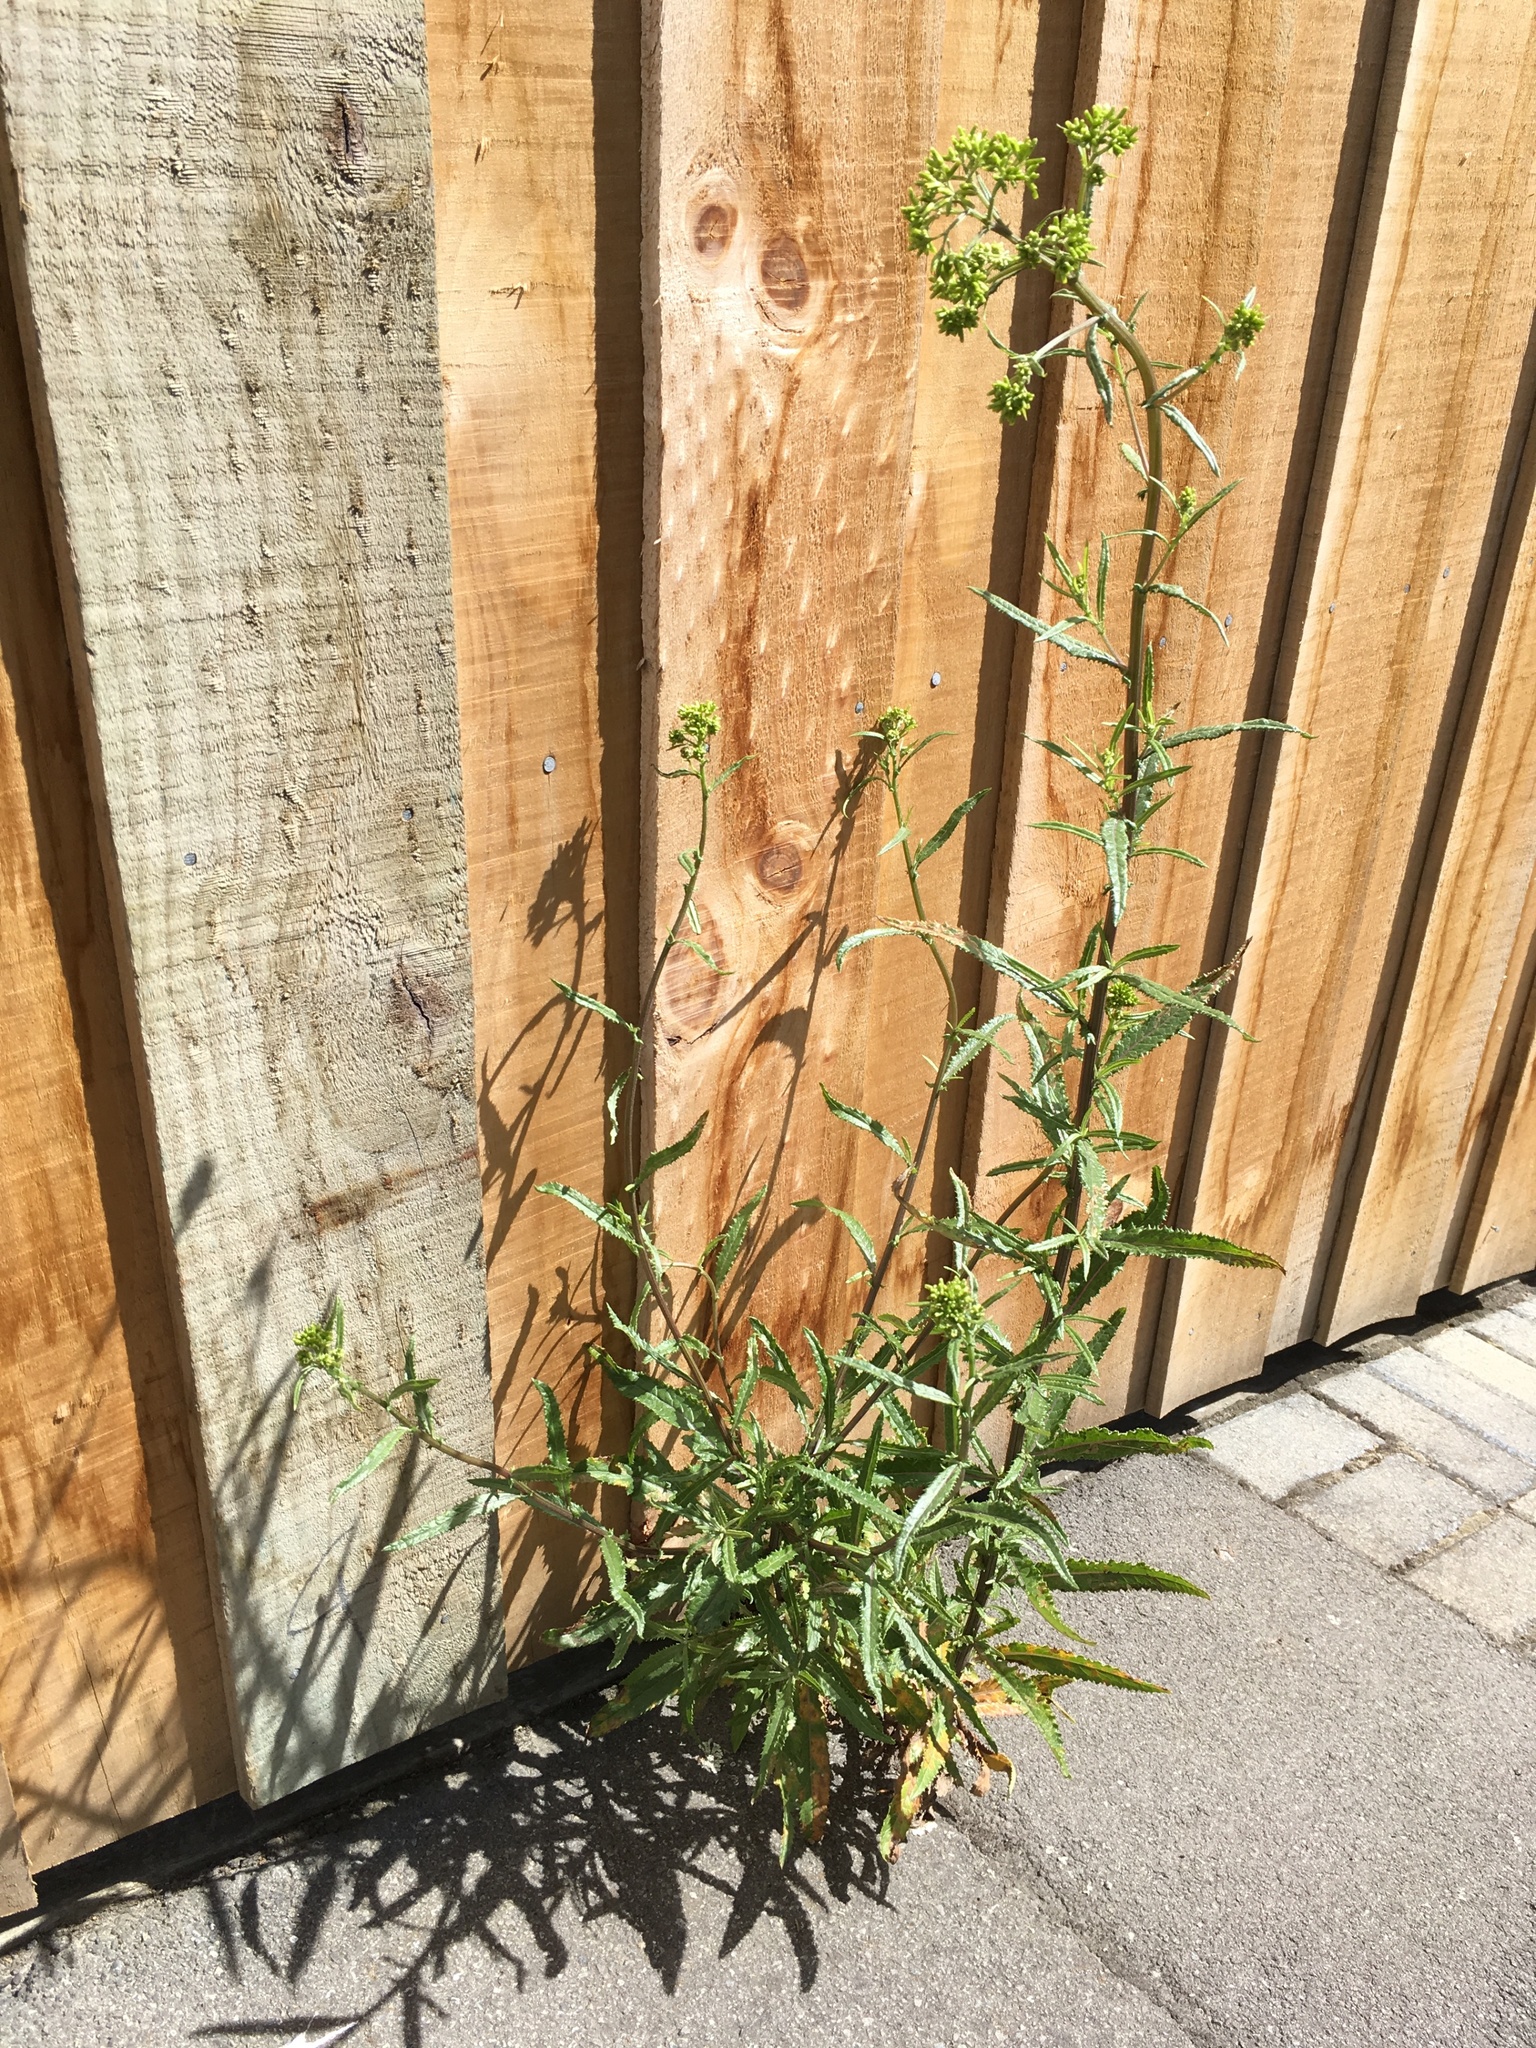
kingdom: Plantae
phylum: Tracheophyta
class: Magnoliopsida
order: Asterales
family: Asteraceae
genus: Senecio
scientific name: Senecio minimus
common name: Toothed fireweed
